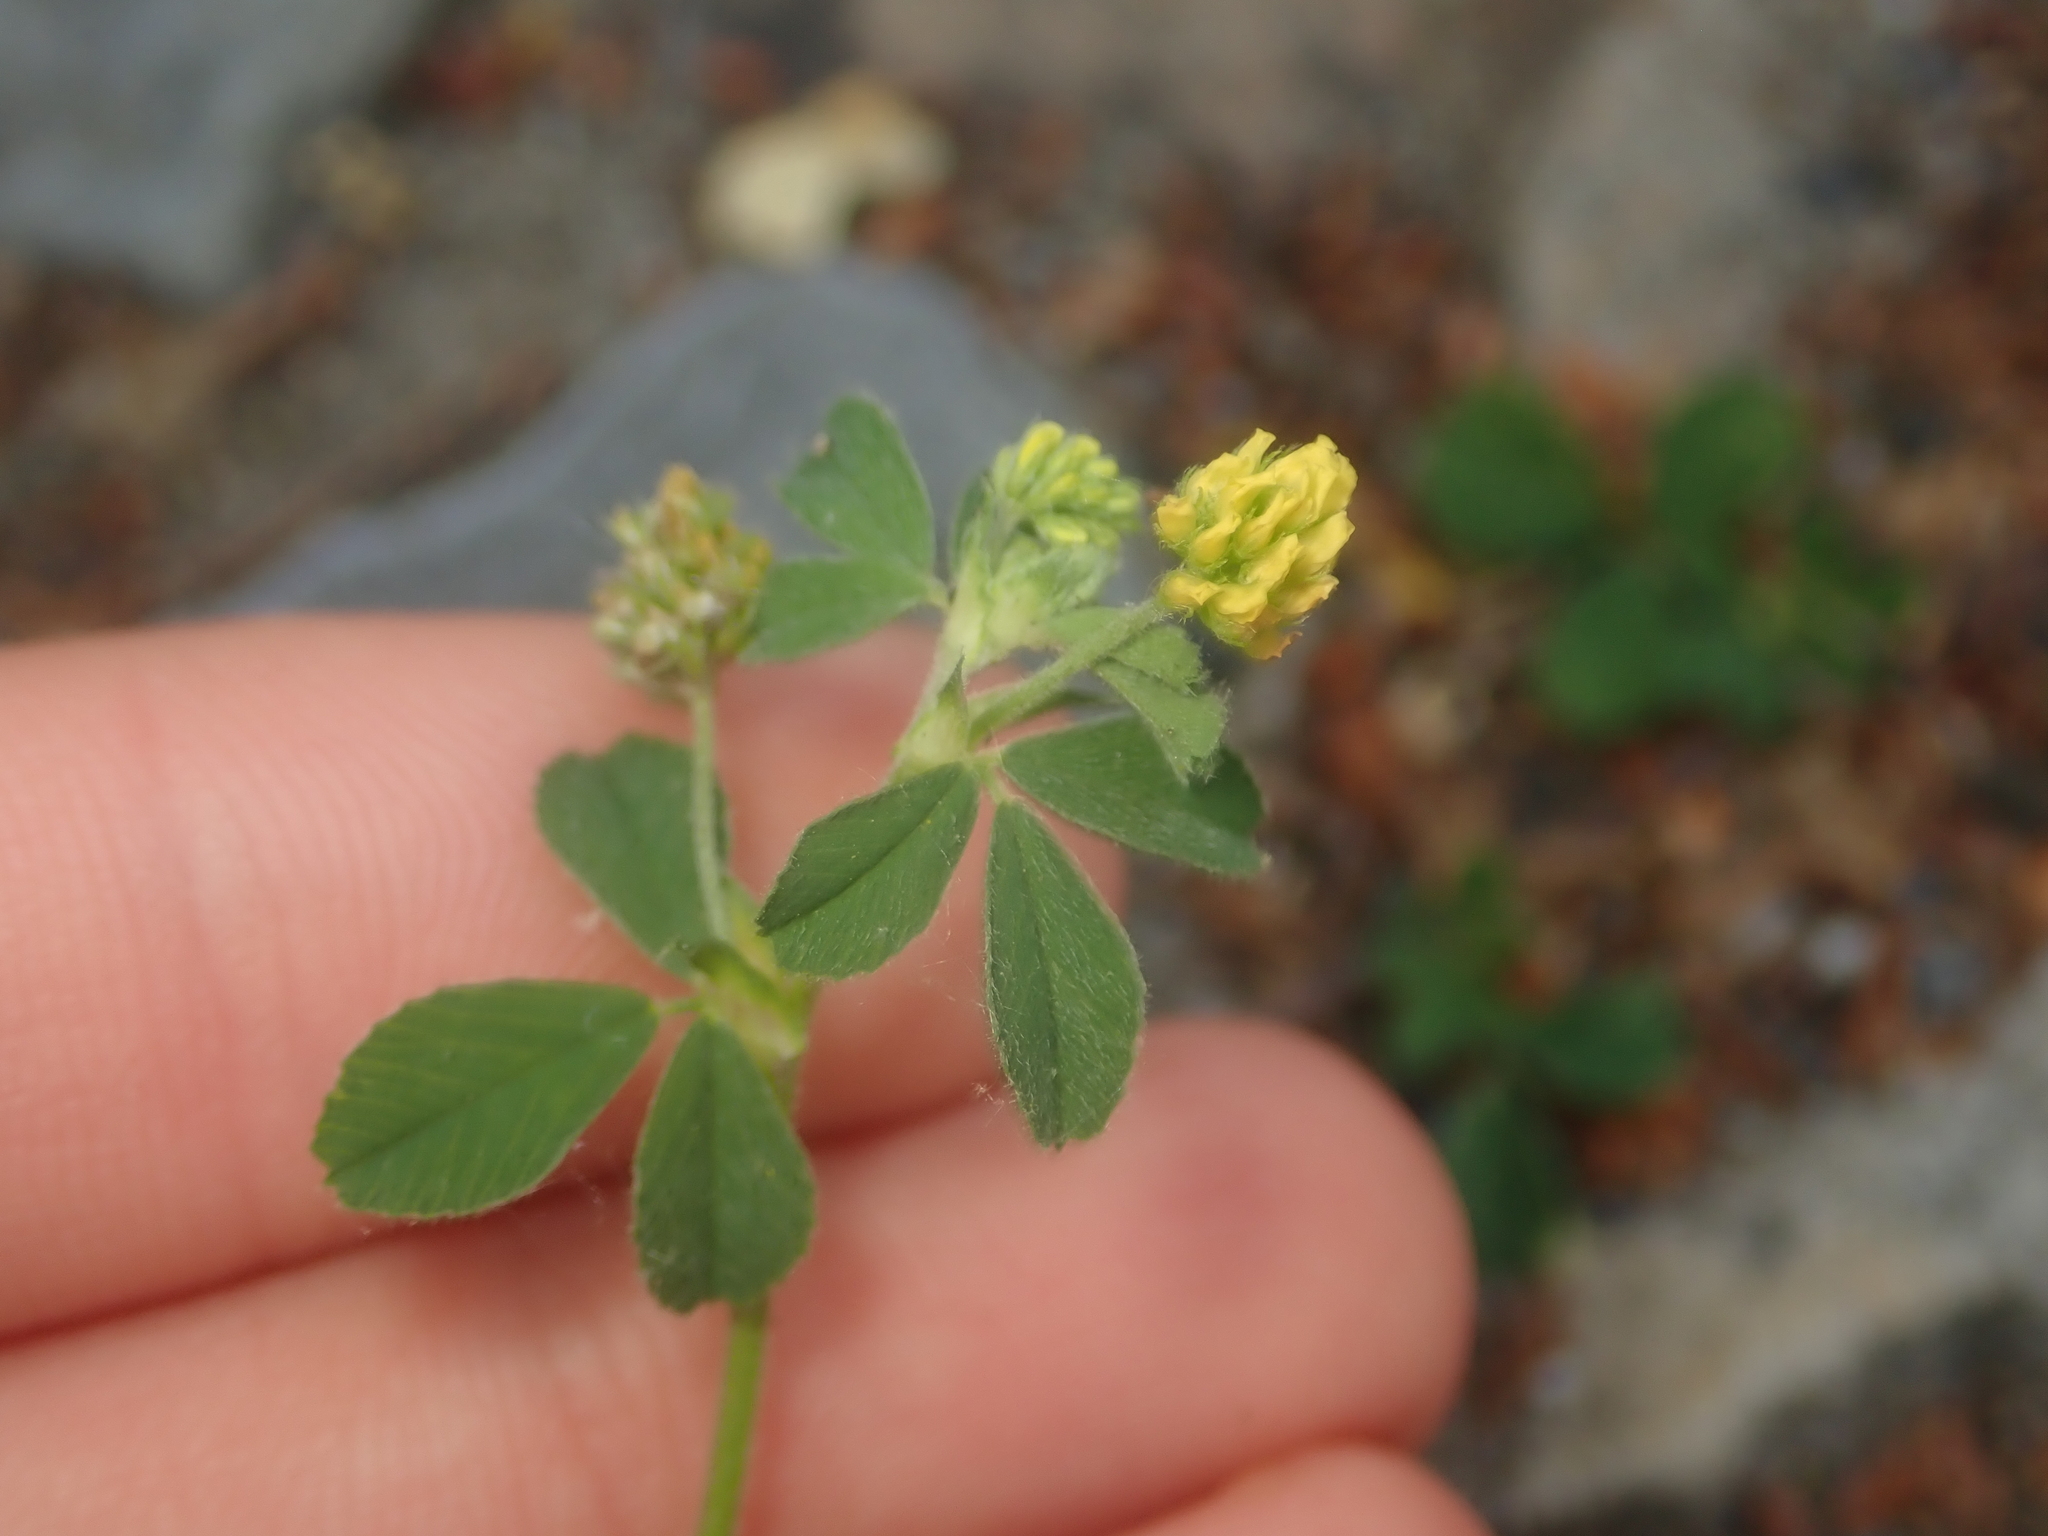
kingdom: Plantae
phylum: Tracheophyta
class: Magnoliopsida
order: Fabales
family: Fabaceae
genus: Medicago
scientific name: Medicago lupulina
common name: Black medick
